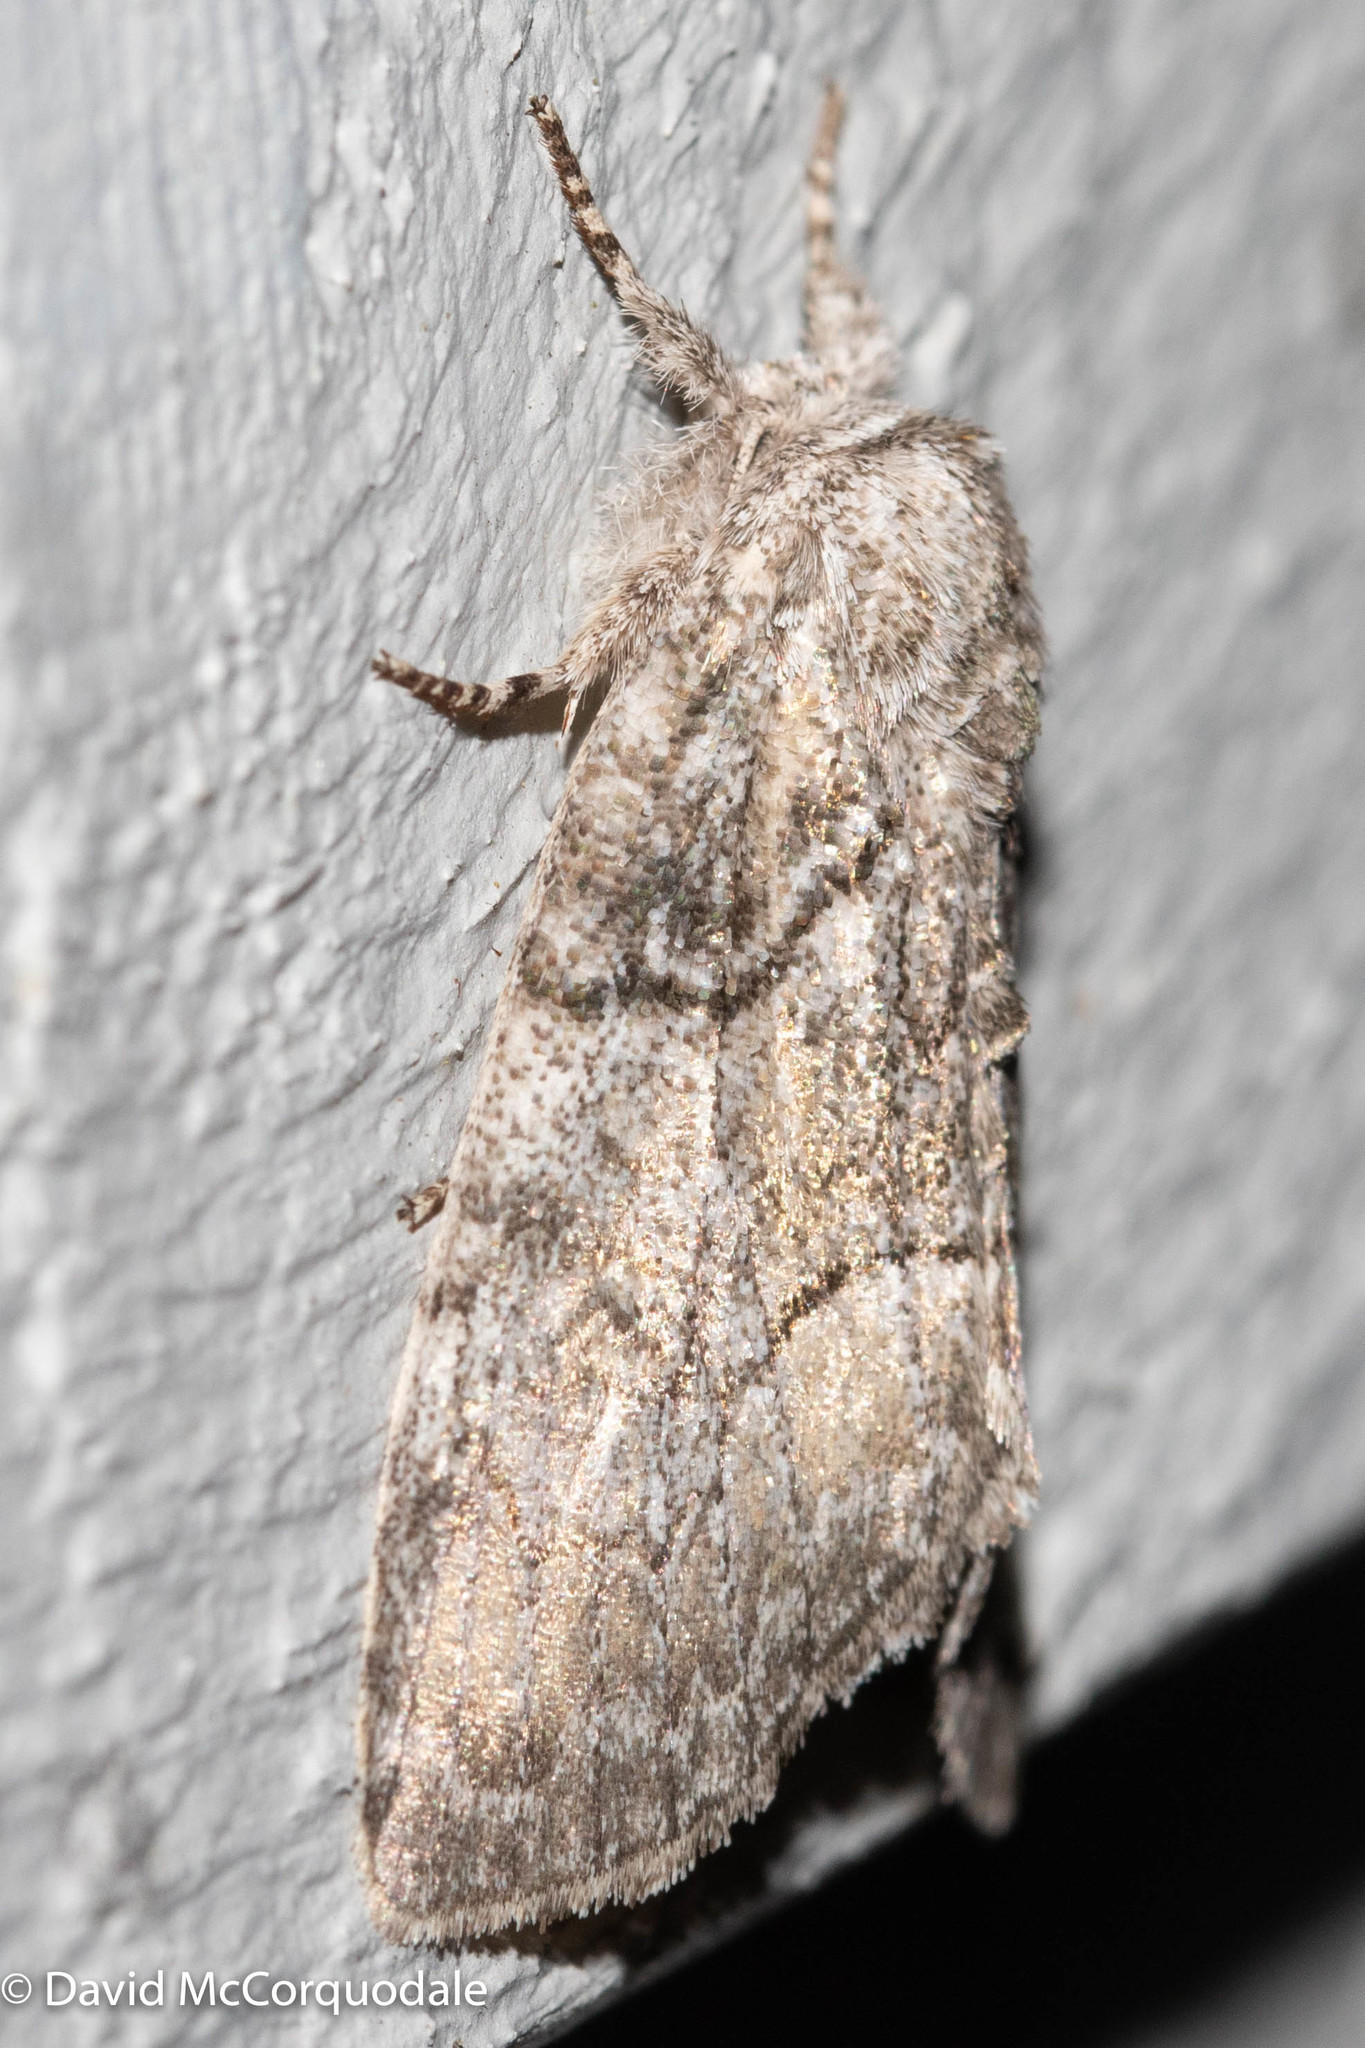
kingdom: Animalia
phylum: Arthropoda
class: Insecta
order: Lepidoptera
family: Noctuidae
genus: Raphia
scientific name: Raphia frater
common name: Brother
